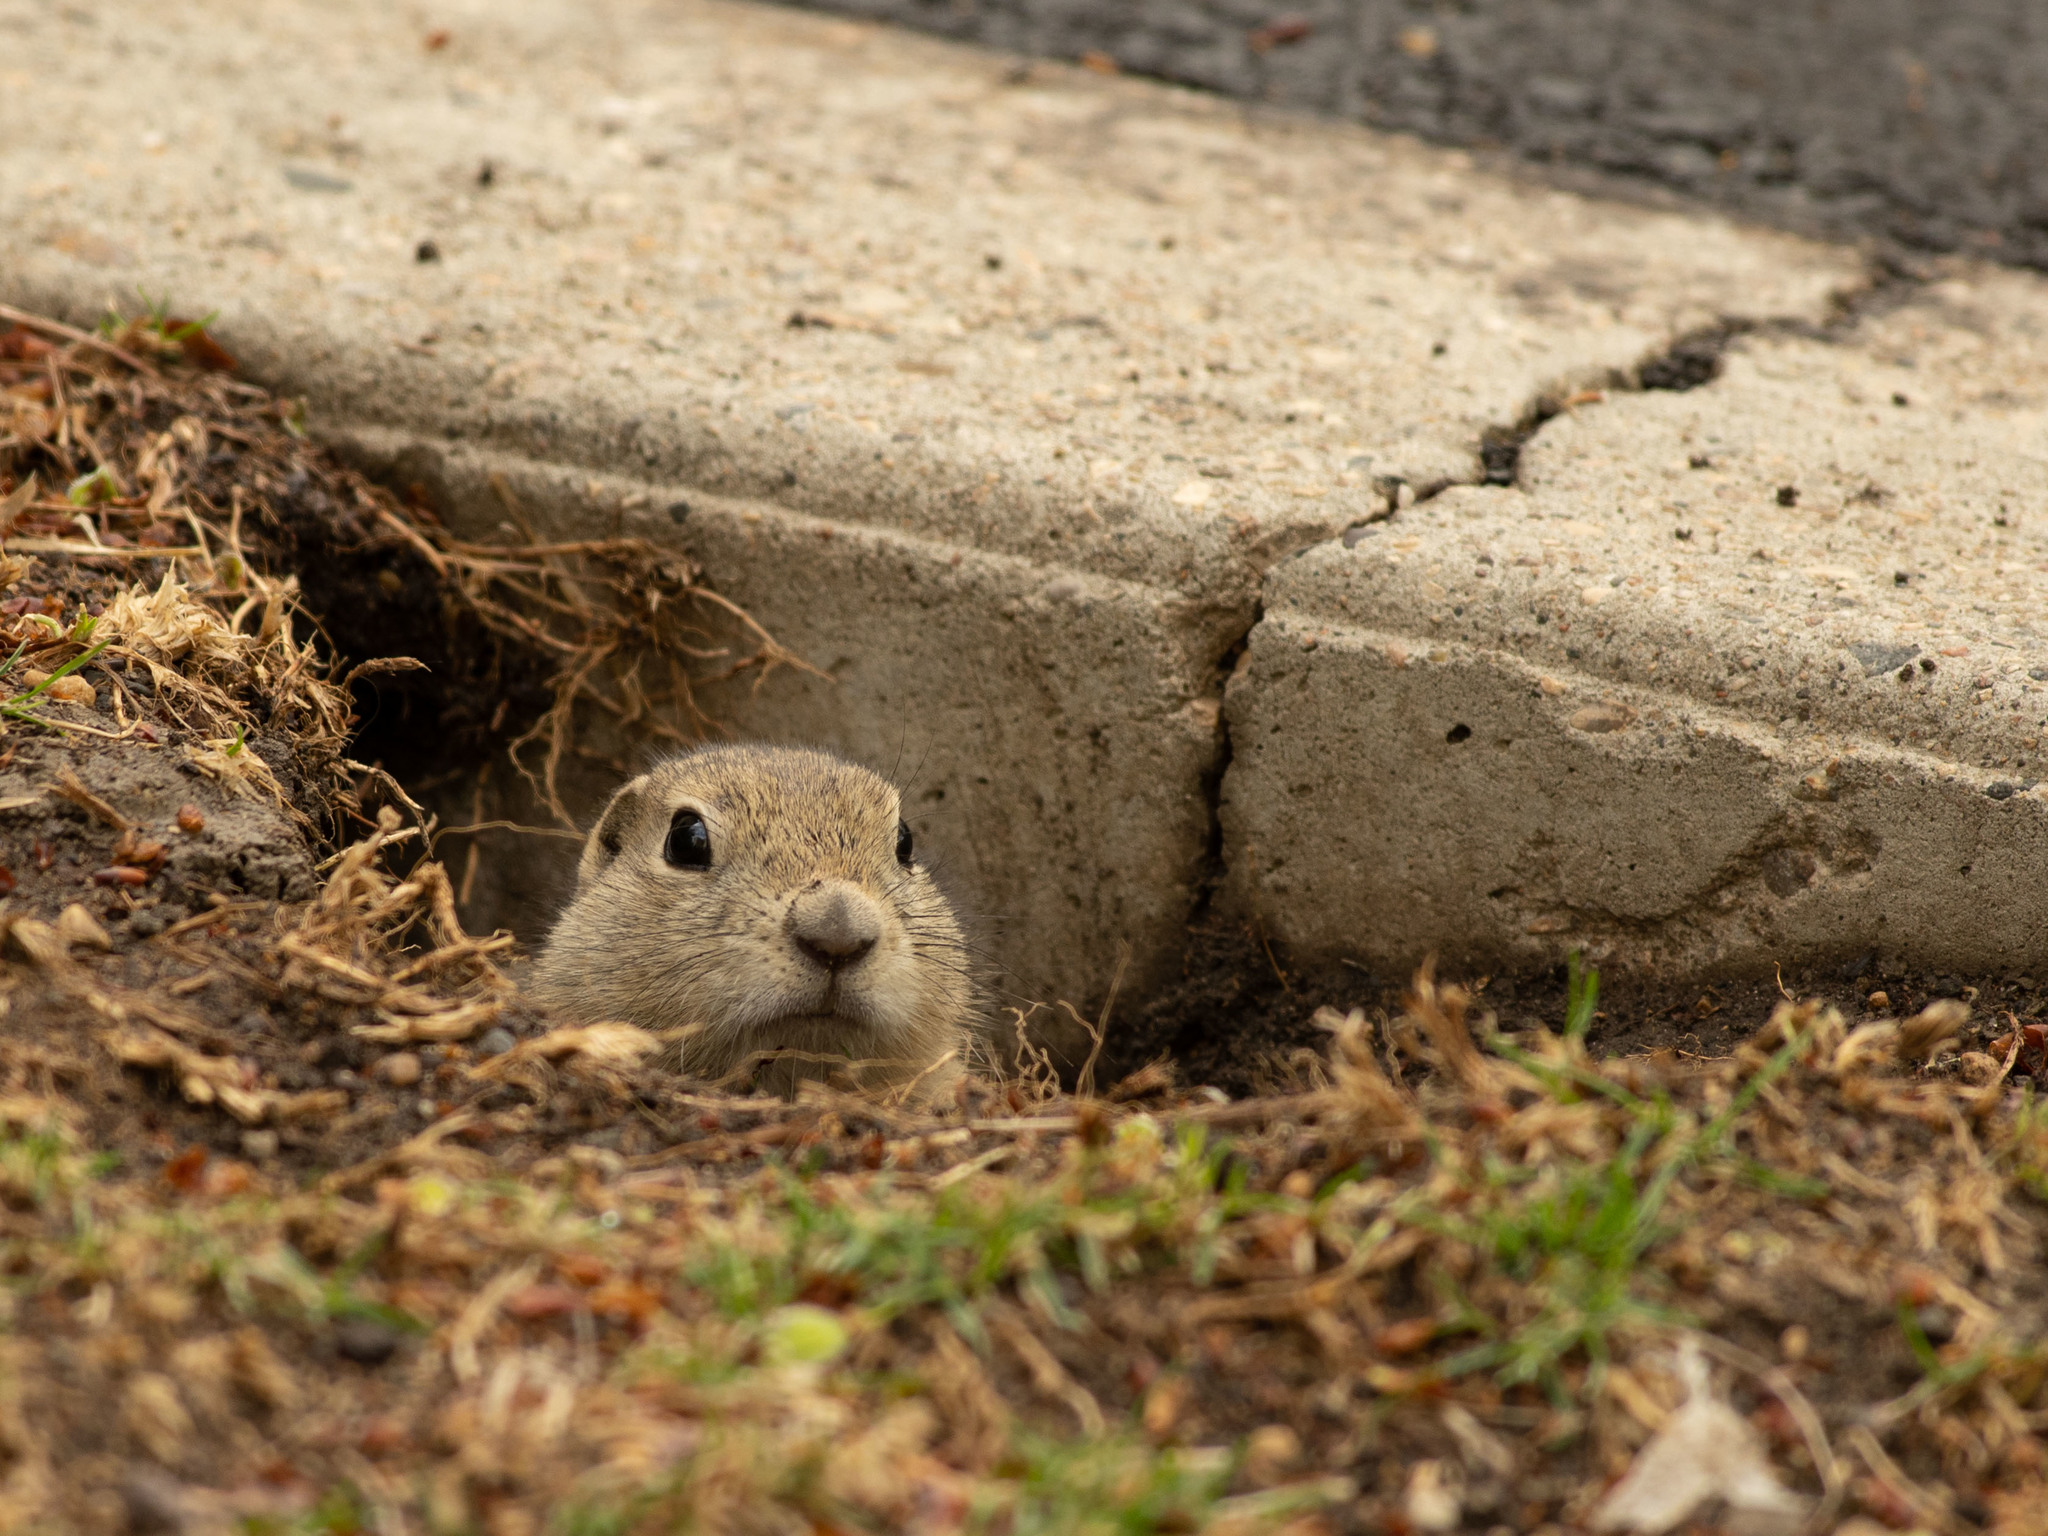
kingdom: Animalia
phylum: Chordata
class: Mammalia
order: Rodentia
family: Sciuridae
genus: Urocitellus
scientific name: Urocitellus richardsonii
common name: Richardson's ground squirrel
